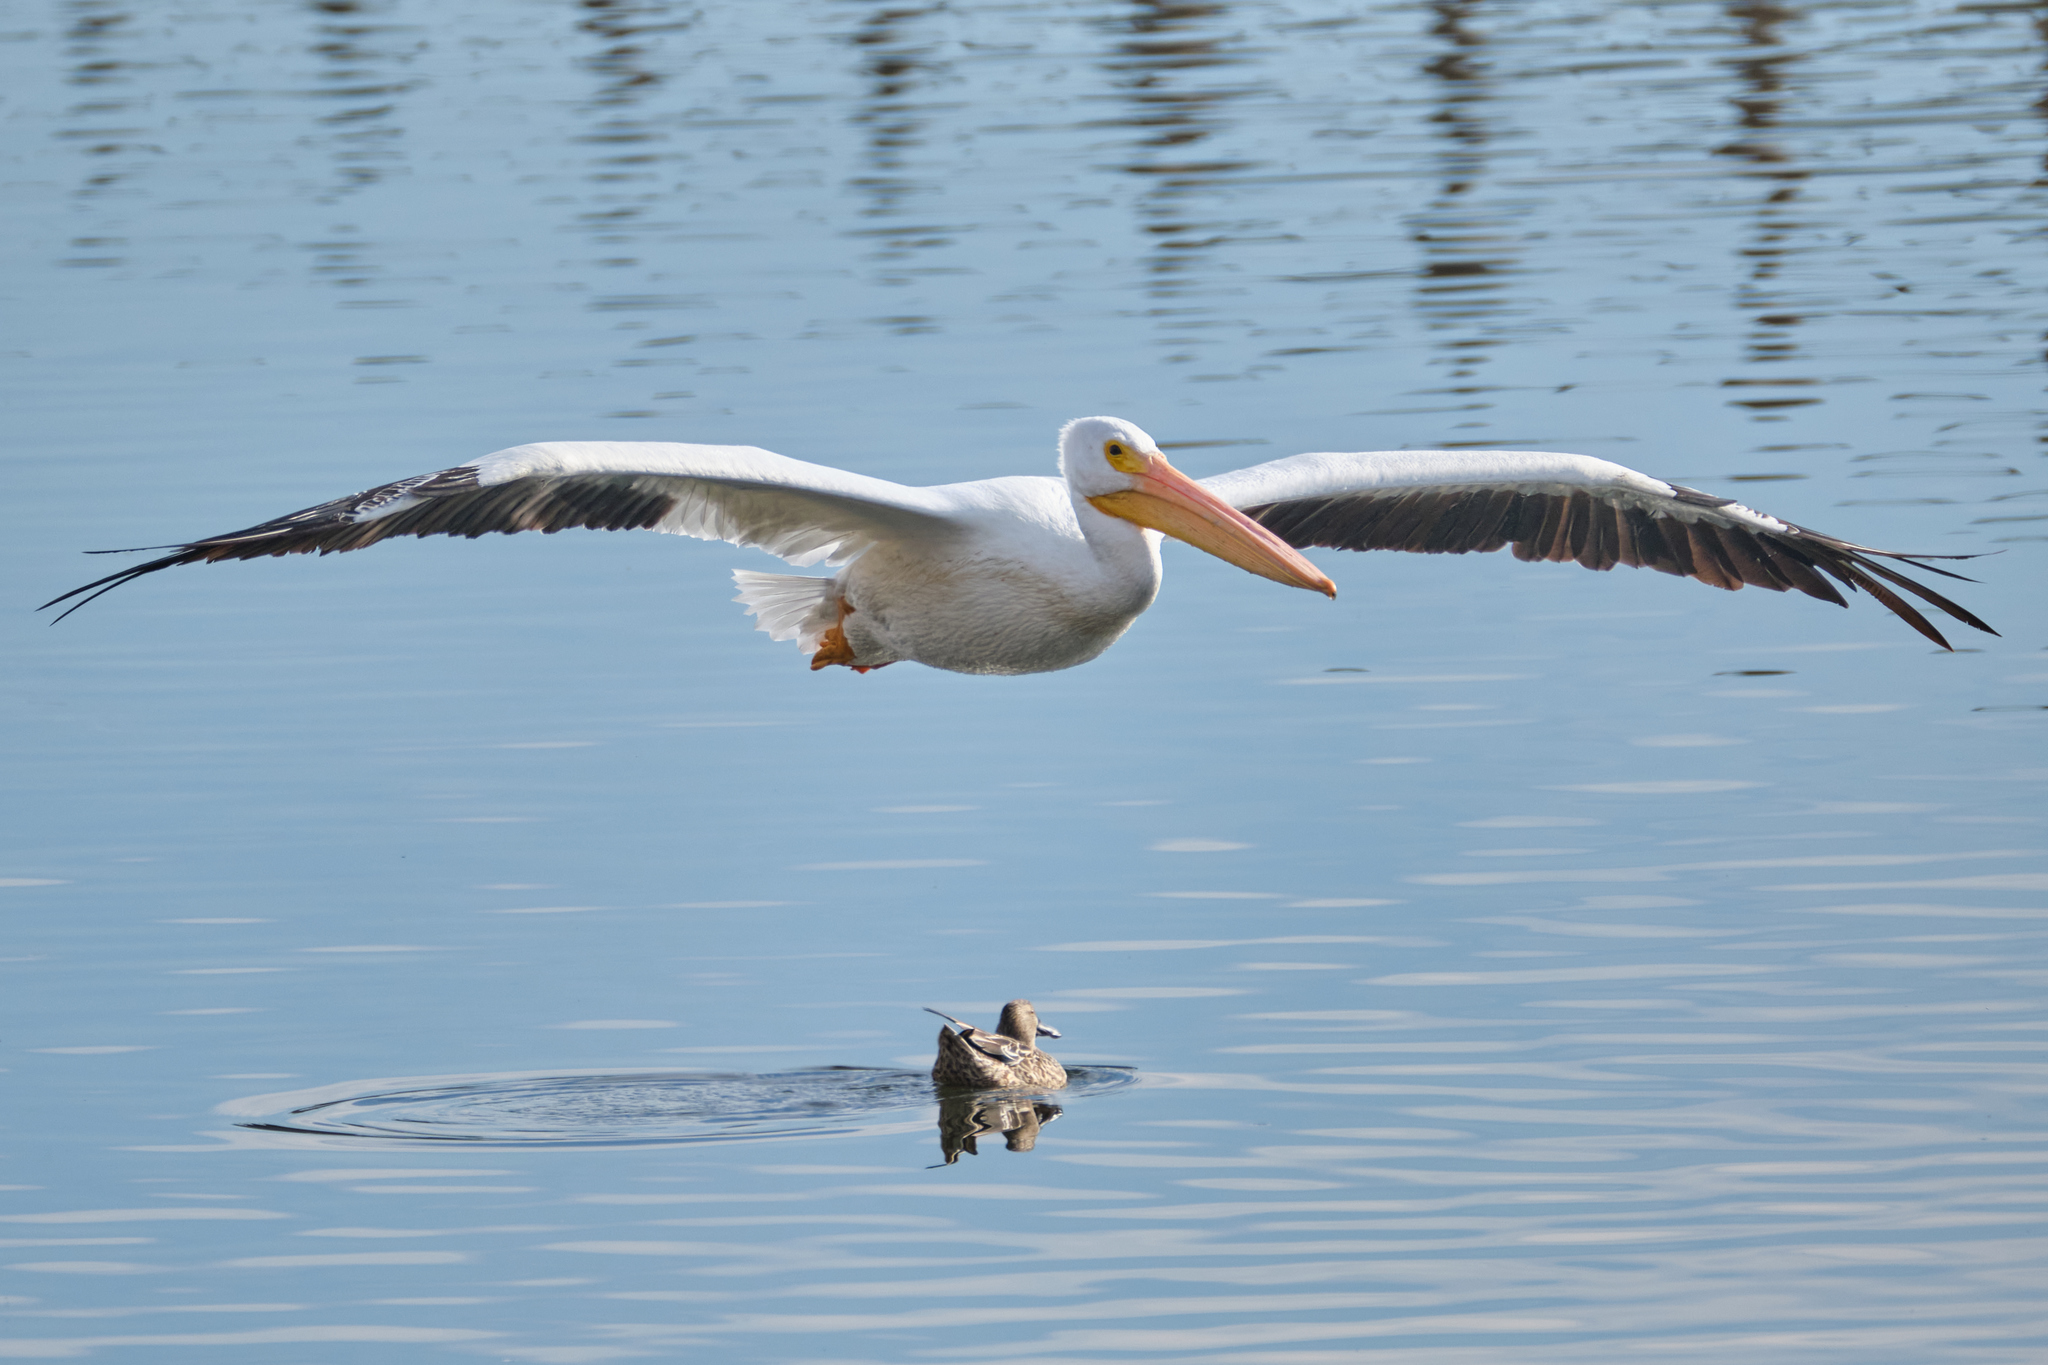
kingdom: Animalia
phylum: Chordata
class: Aves
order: Pelecaniformes
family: Pelecanidae
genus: Pelecanus
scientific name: Pelecanus erythrorhynchos
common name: American white pelican
